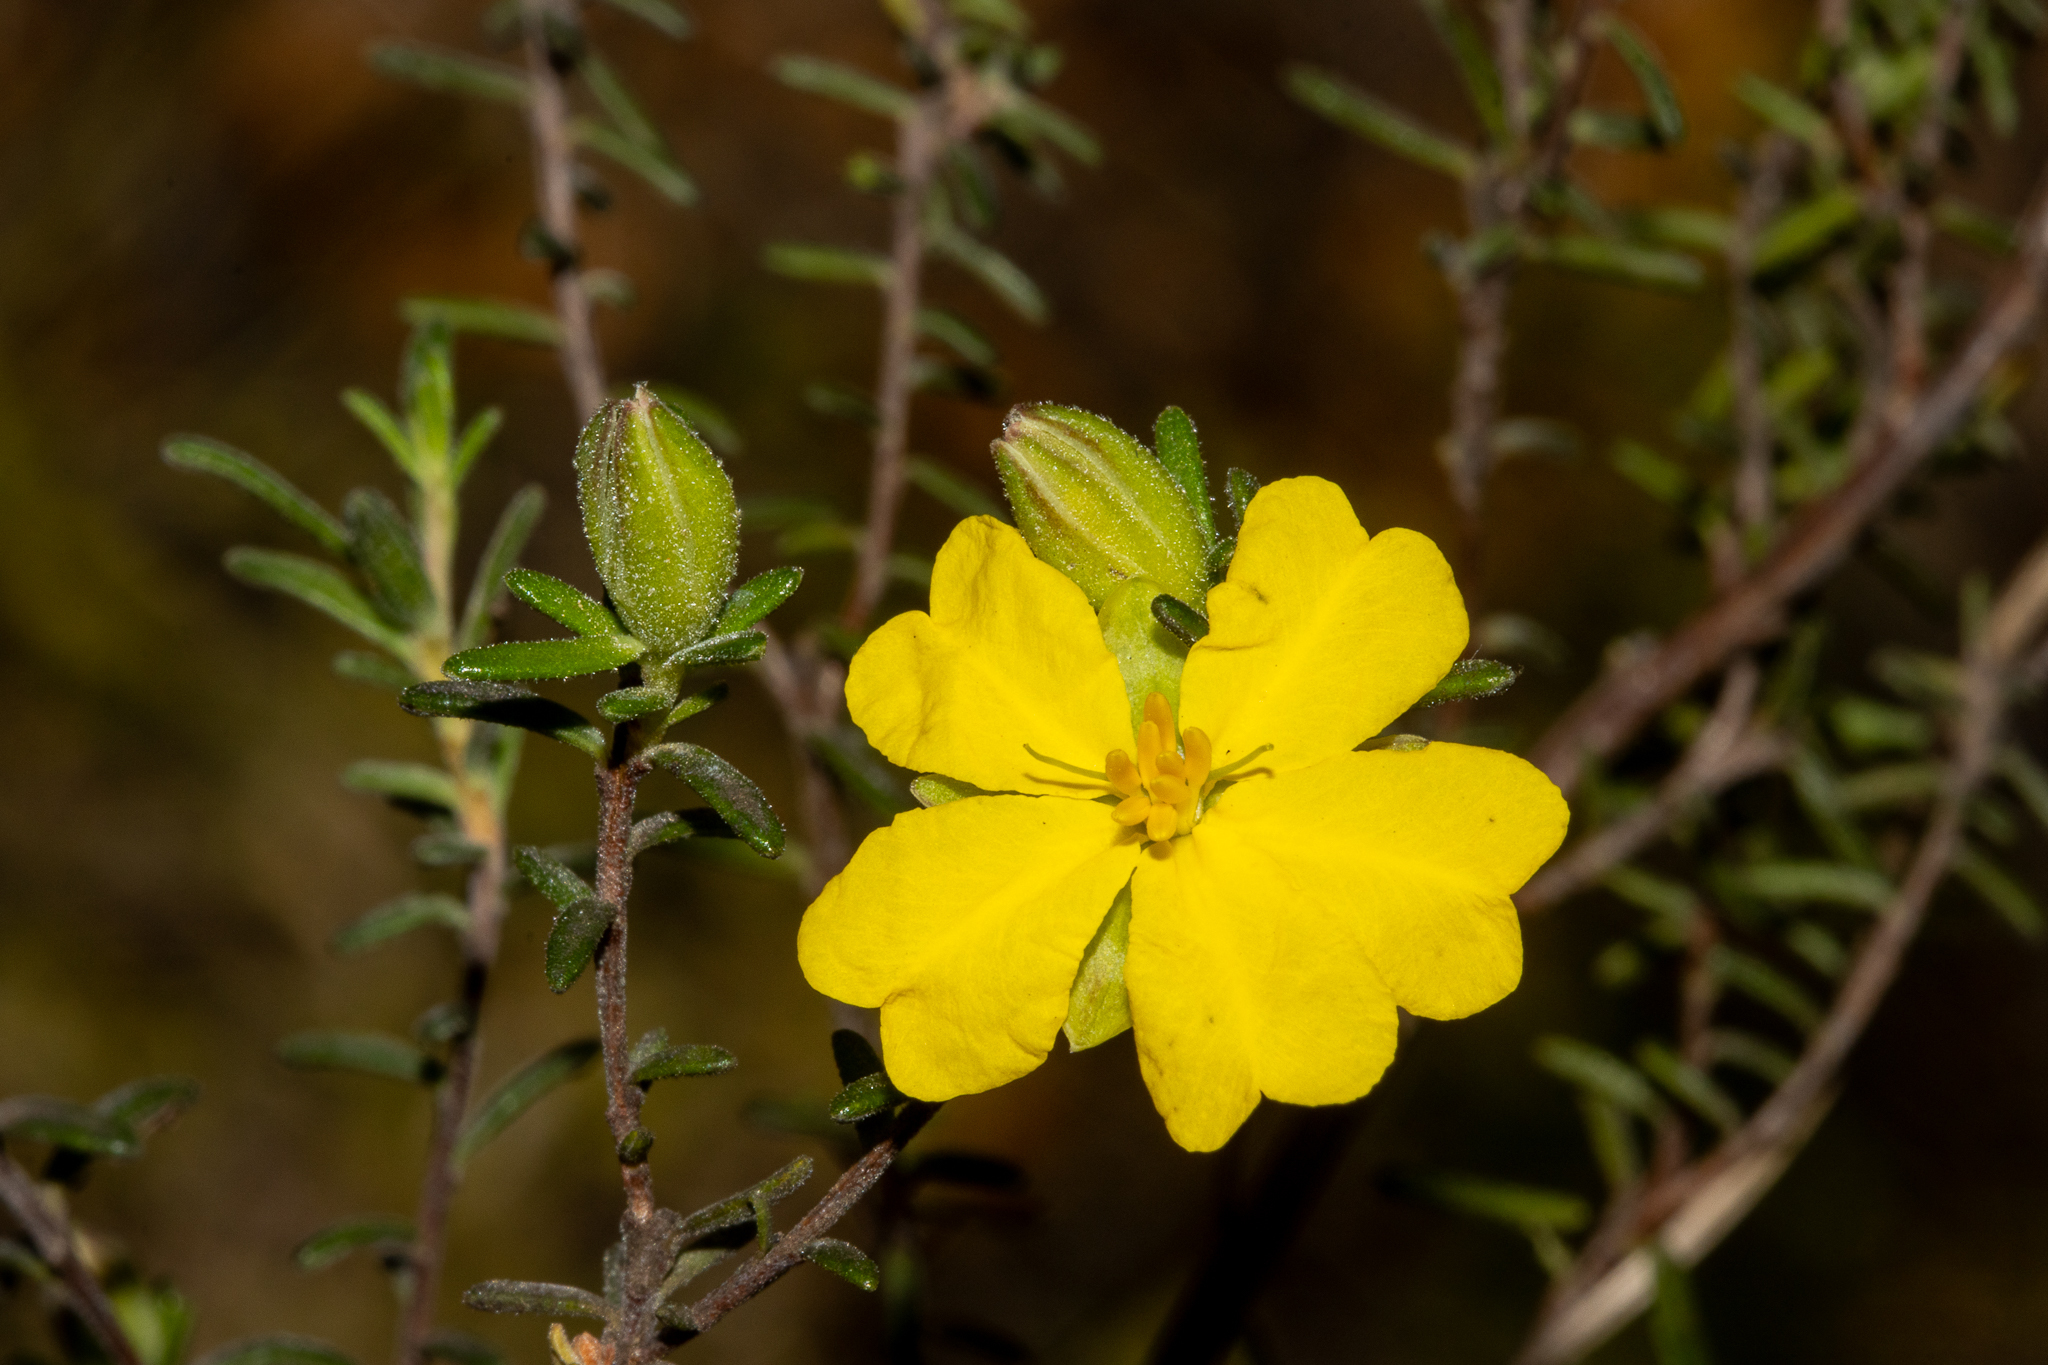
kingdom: Plantae
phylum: Tracheophyta
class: Magnoliopsida
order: Dilleniales
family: Dilleniaceae
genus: Hibbertia
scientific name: Hibbertia devitata
